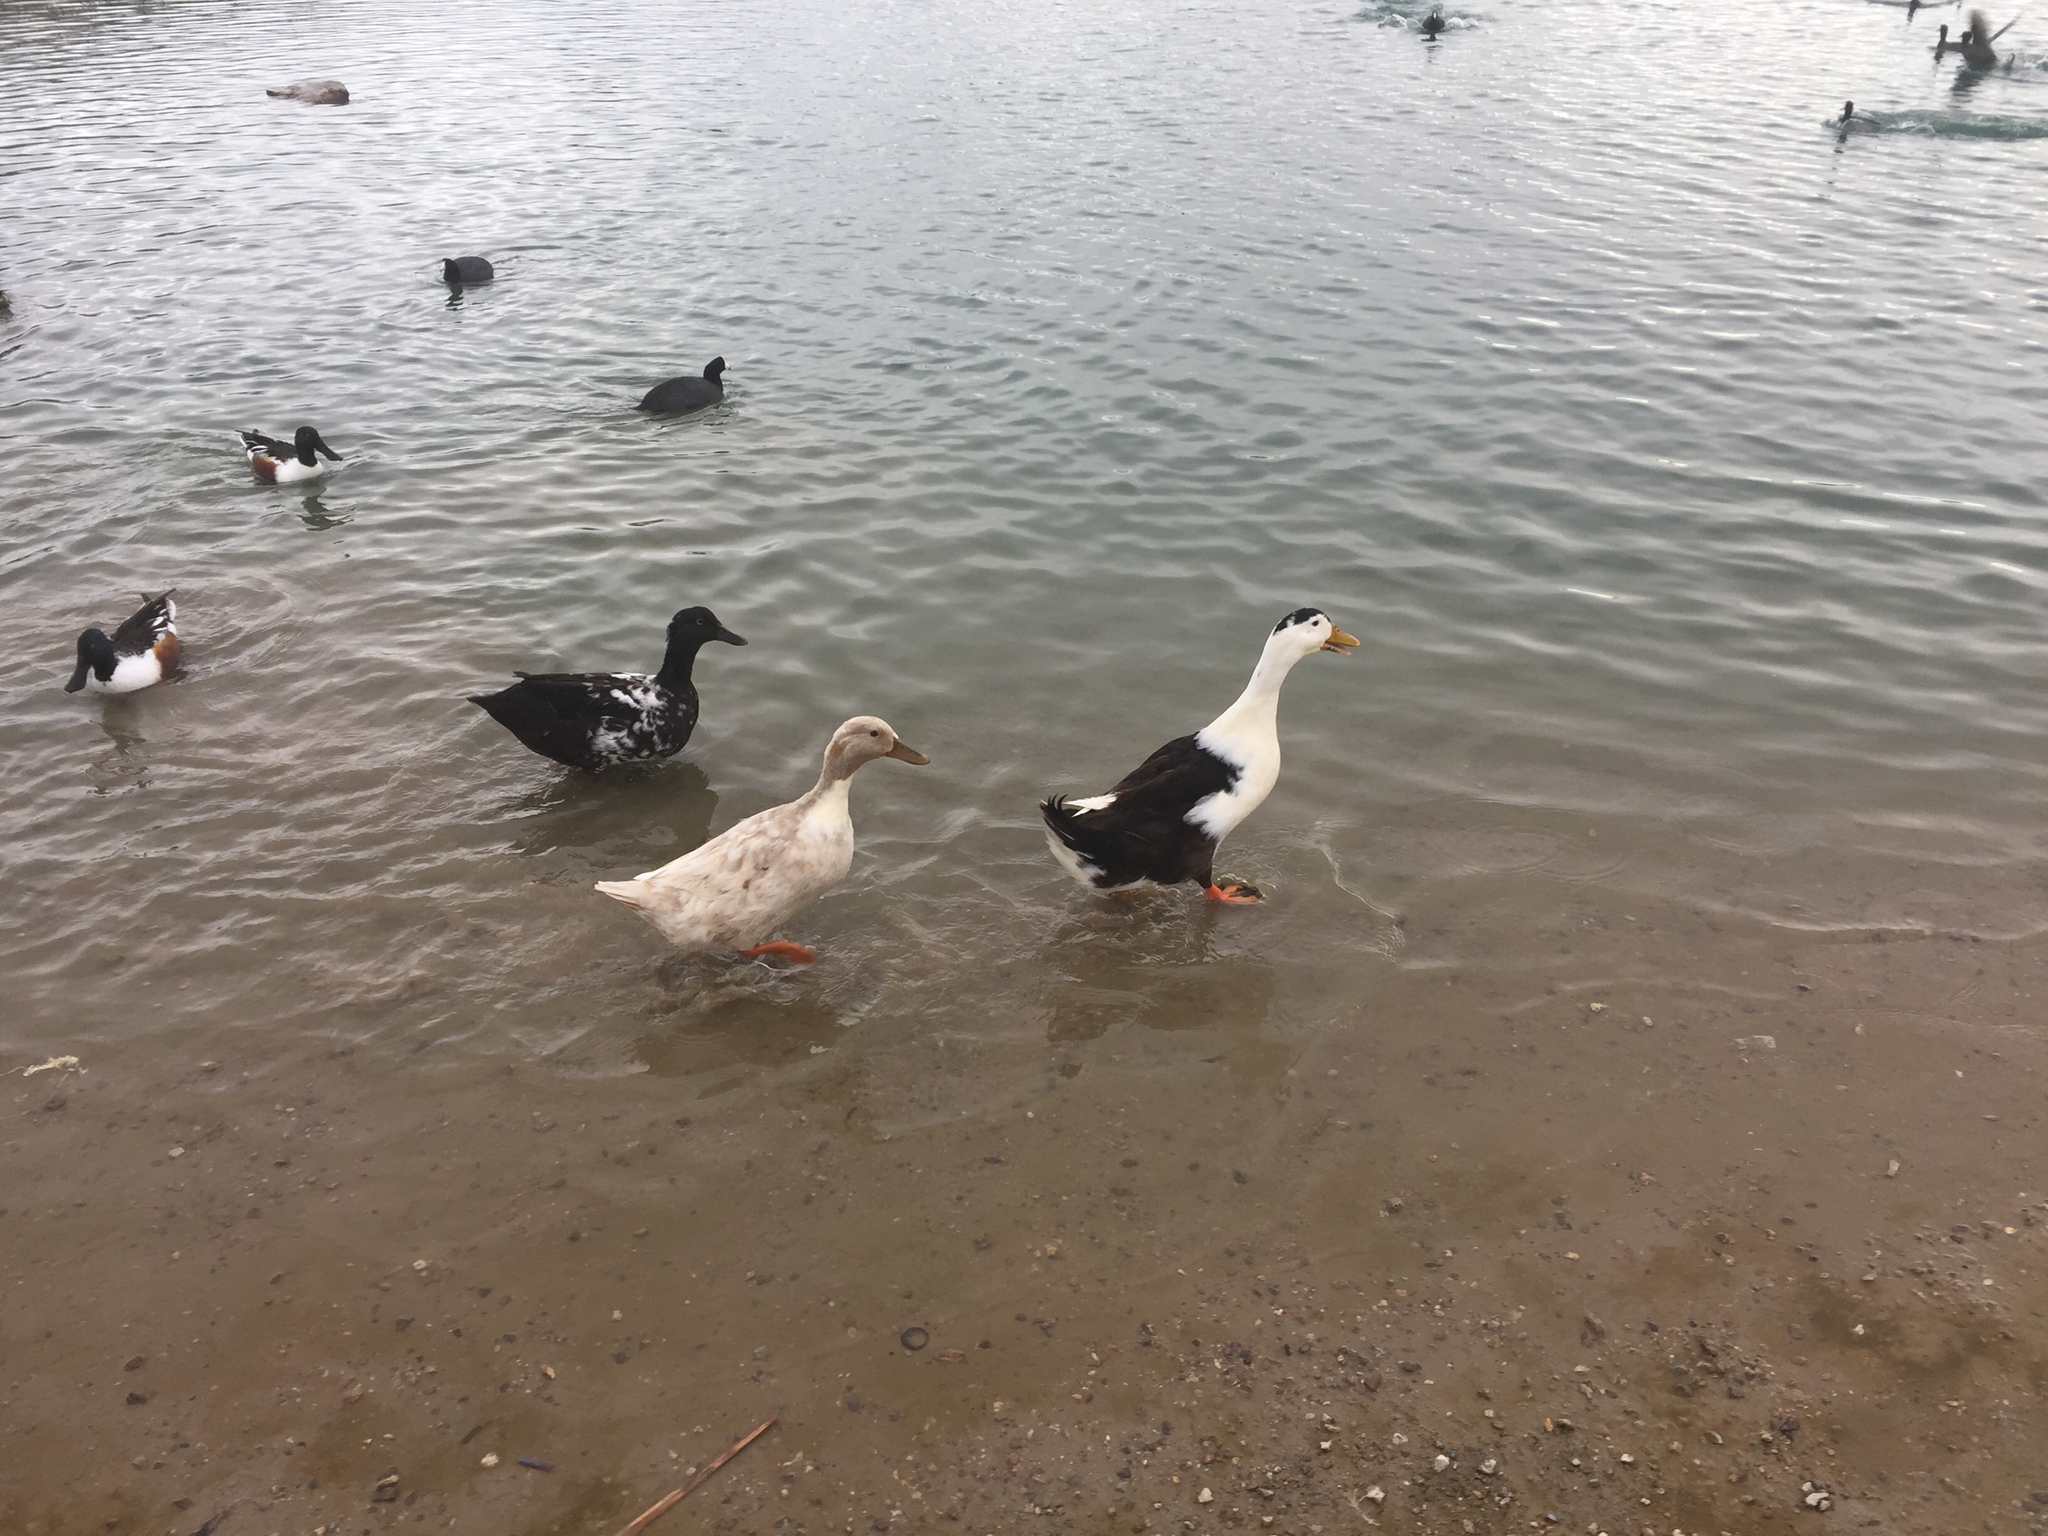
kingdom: Animalia
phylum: Chordata
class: Aves
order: Anseriformes
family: Anatidae
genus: Anas
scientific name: Anas platyrhynchos
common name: Mallard
